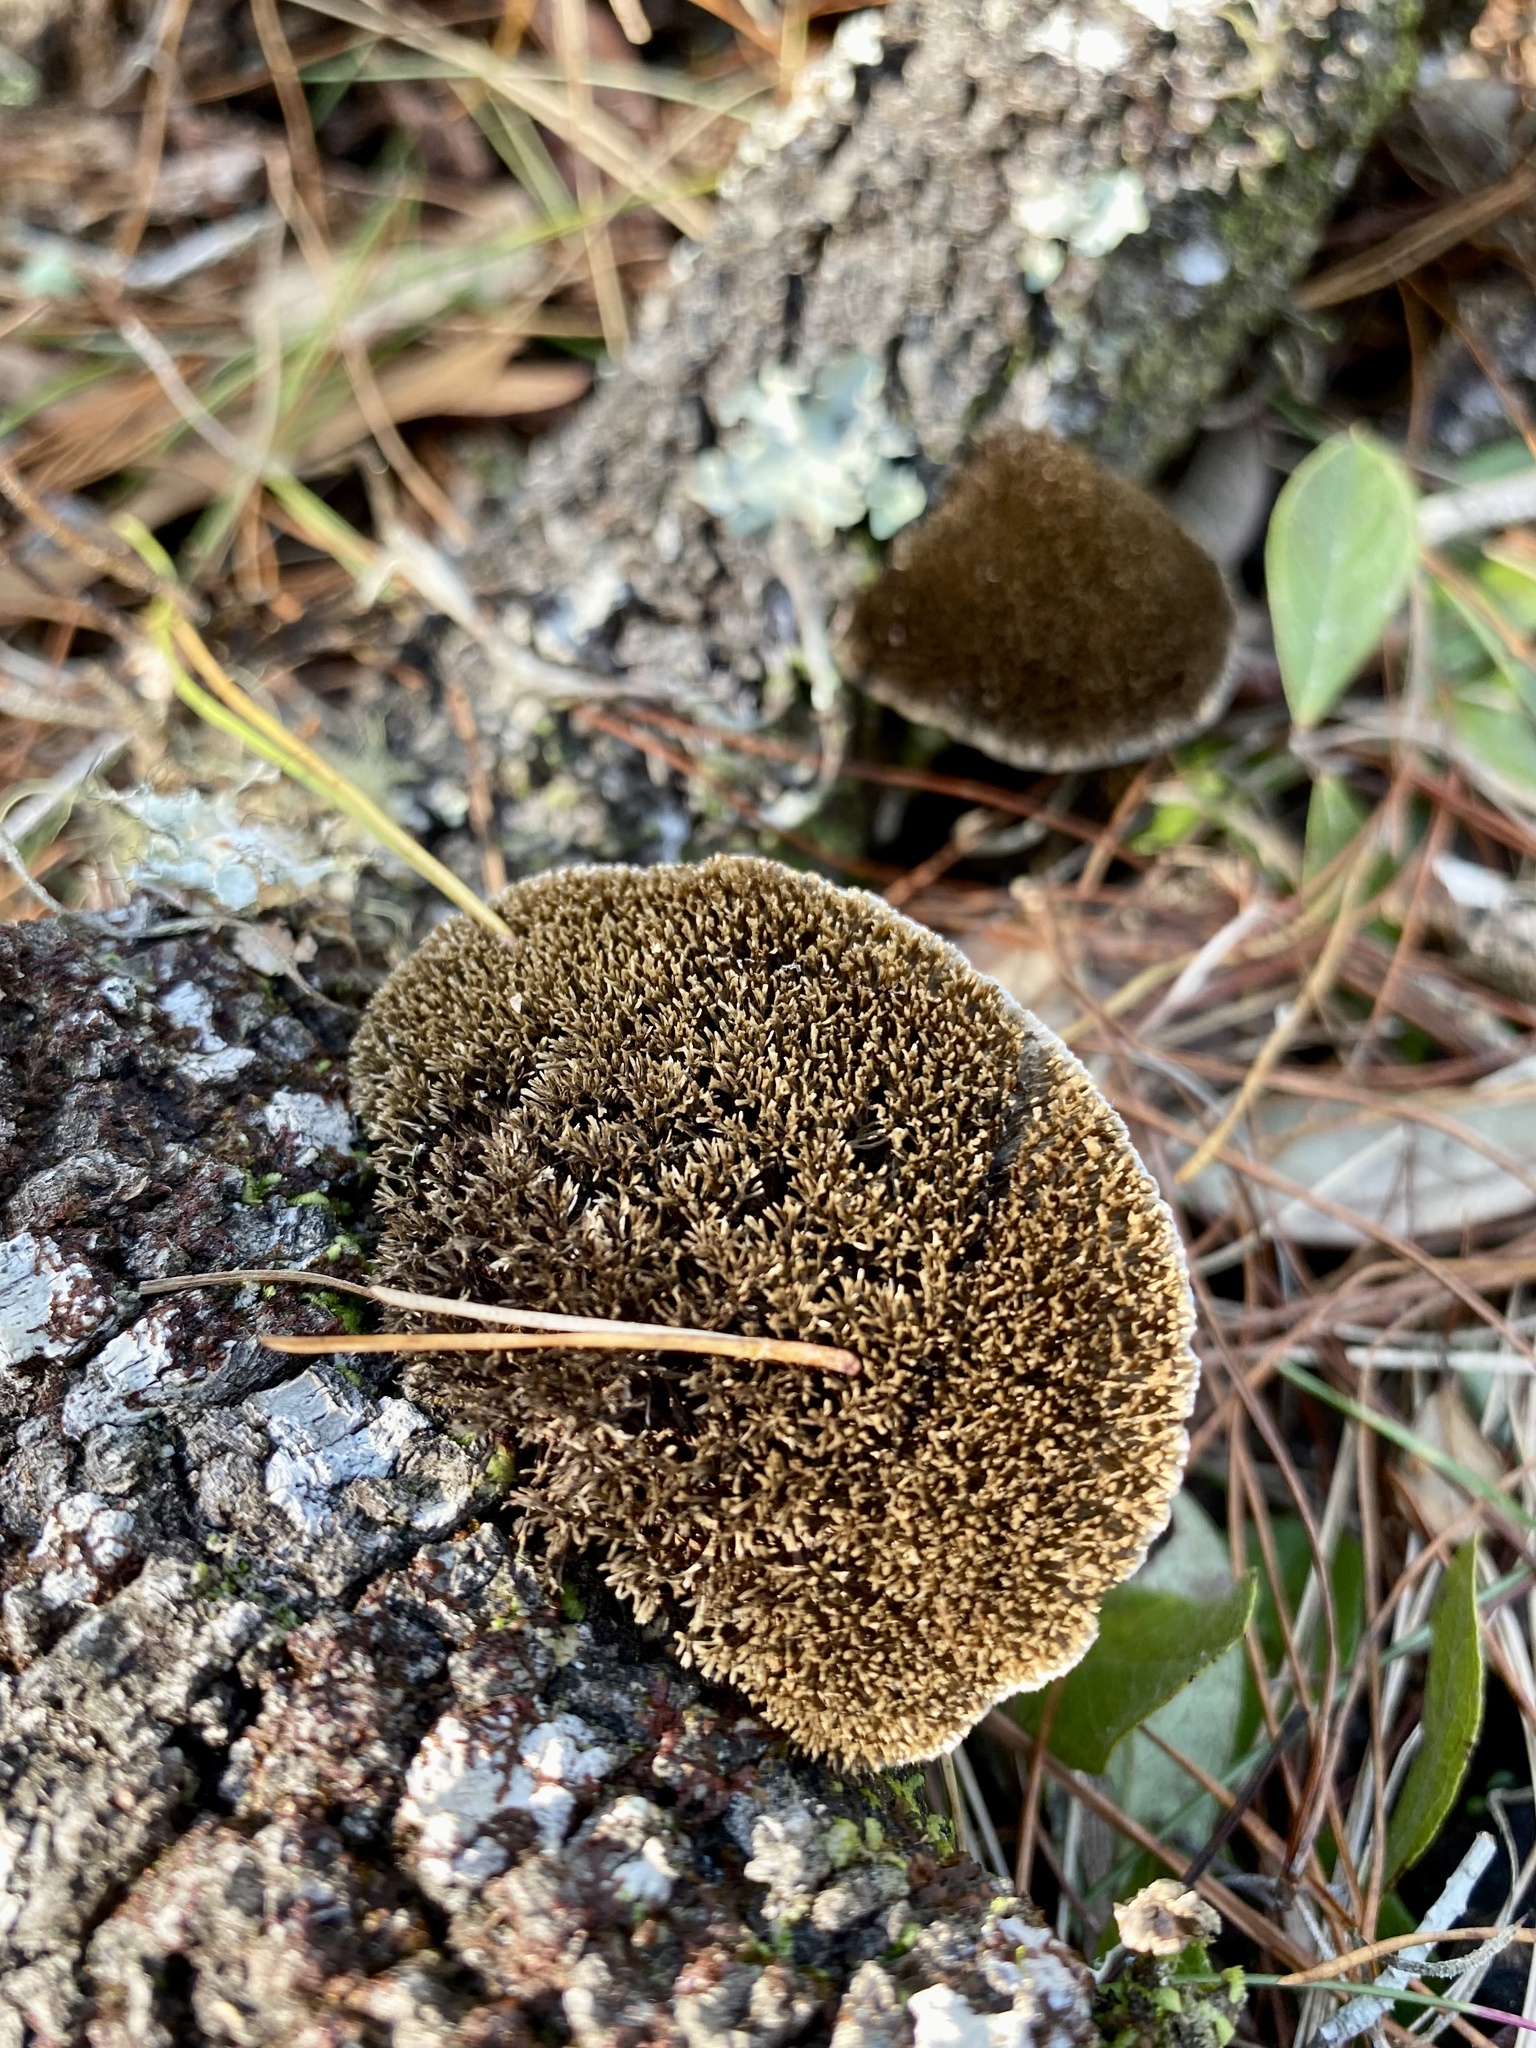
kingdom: Fungi
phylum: Basidiomycota
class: Agaricomycetes
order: Polyporales
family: Cerrenaceae
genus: Cerrena
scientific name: Cerrena hydnoides
